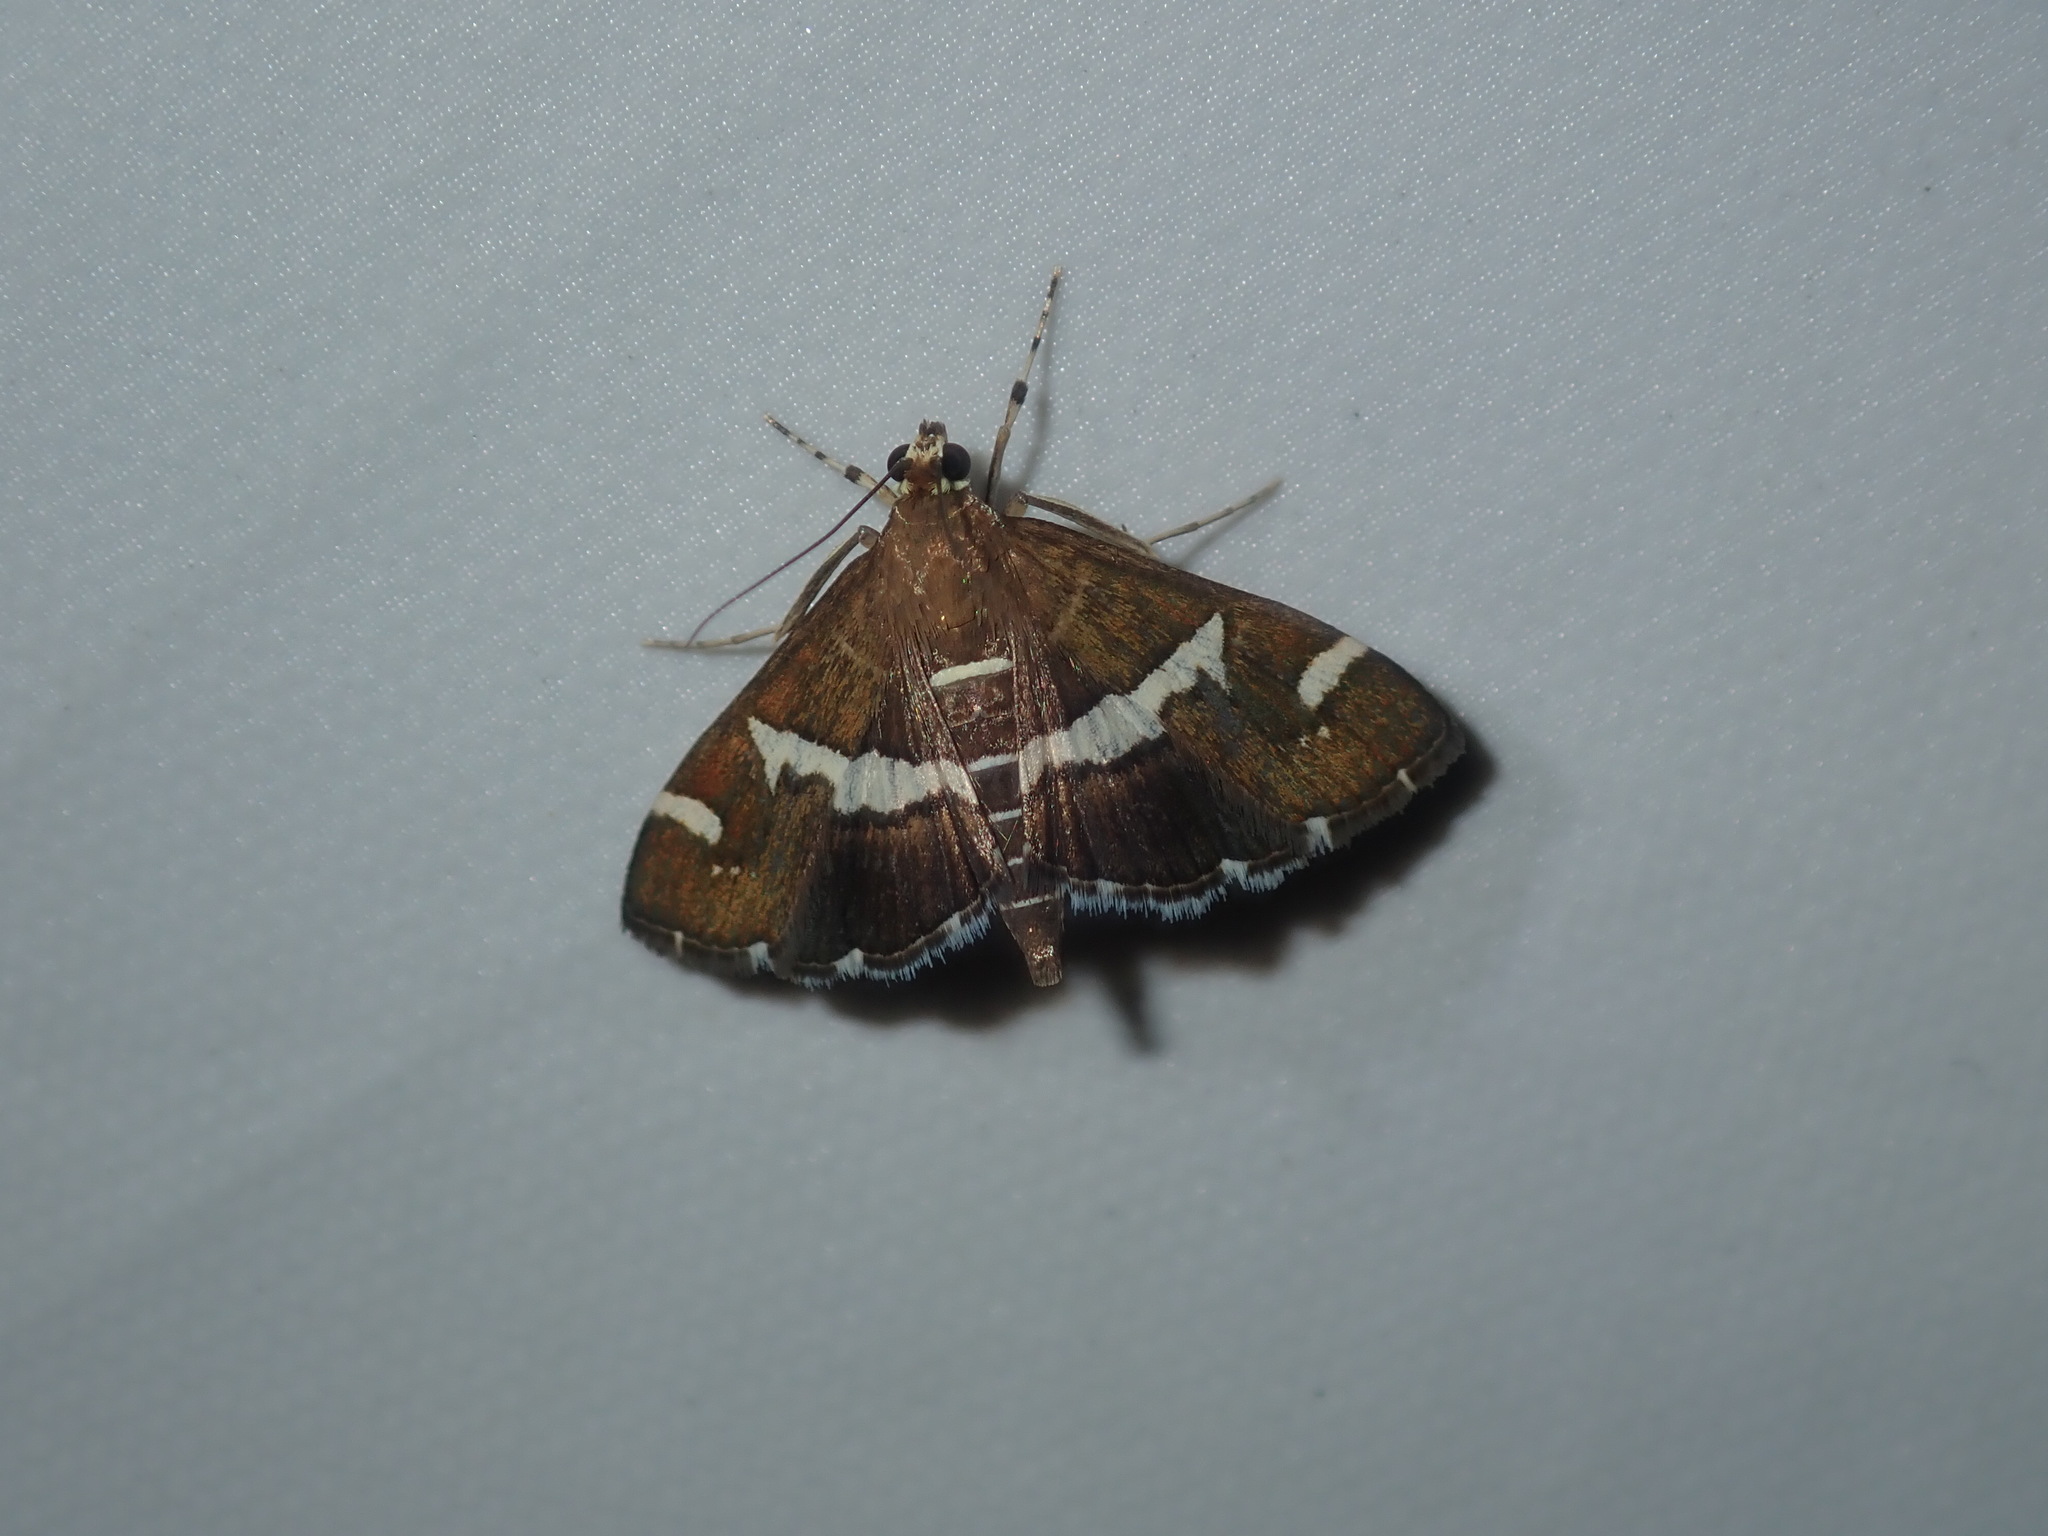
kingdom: Animalia
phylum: Arthropoda
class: Insecta
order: Lepidoptera
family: Crambidae
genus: Spoladea
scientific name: Spoladea recurvalis
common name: Beet webworm moth
